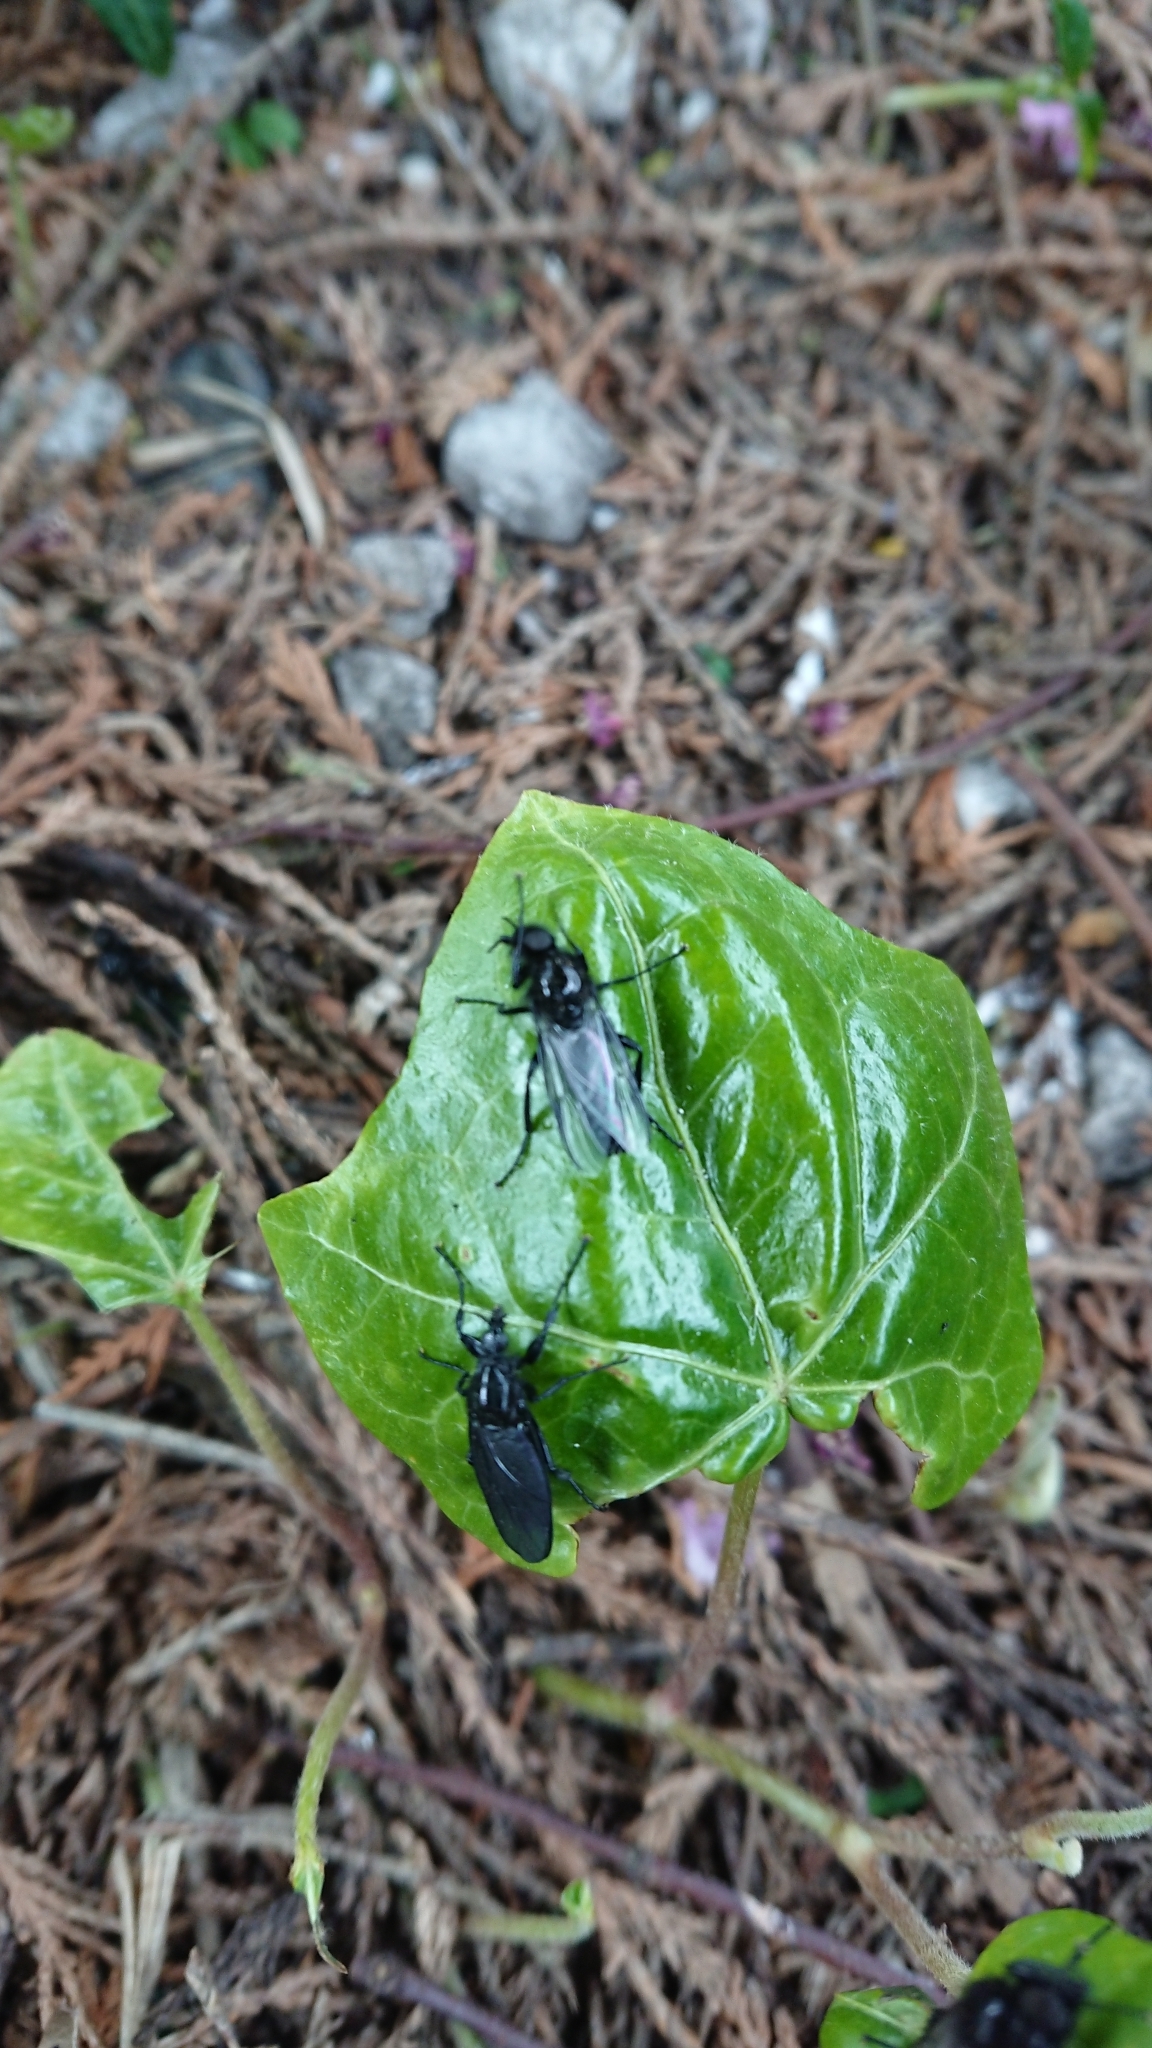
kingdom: Animalia
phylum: Arthropoda
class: Insecta
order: Diptera
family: Bibionidae
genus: Bibio
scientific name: Bibio marci
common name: St marks fly
